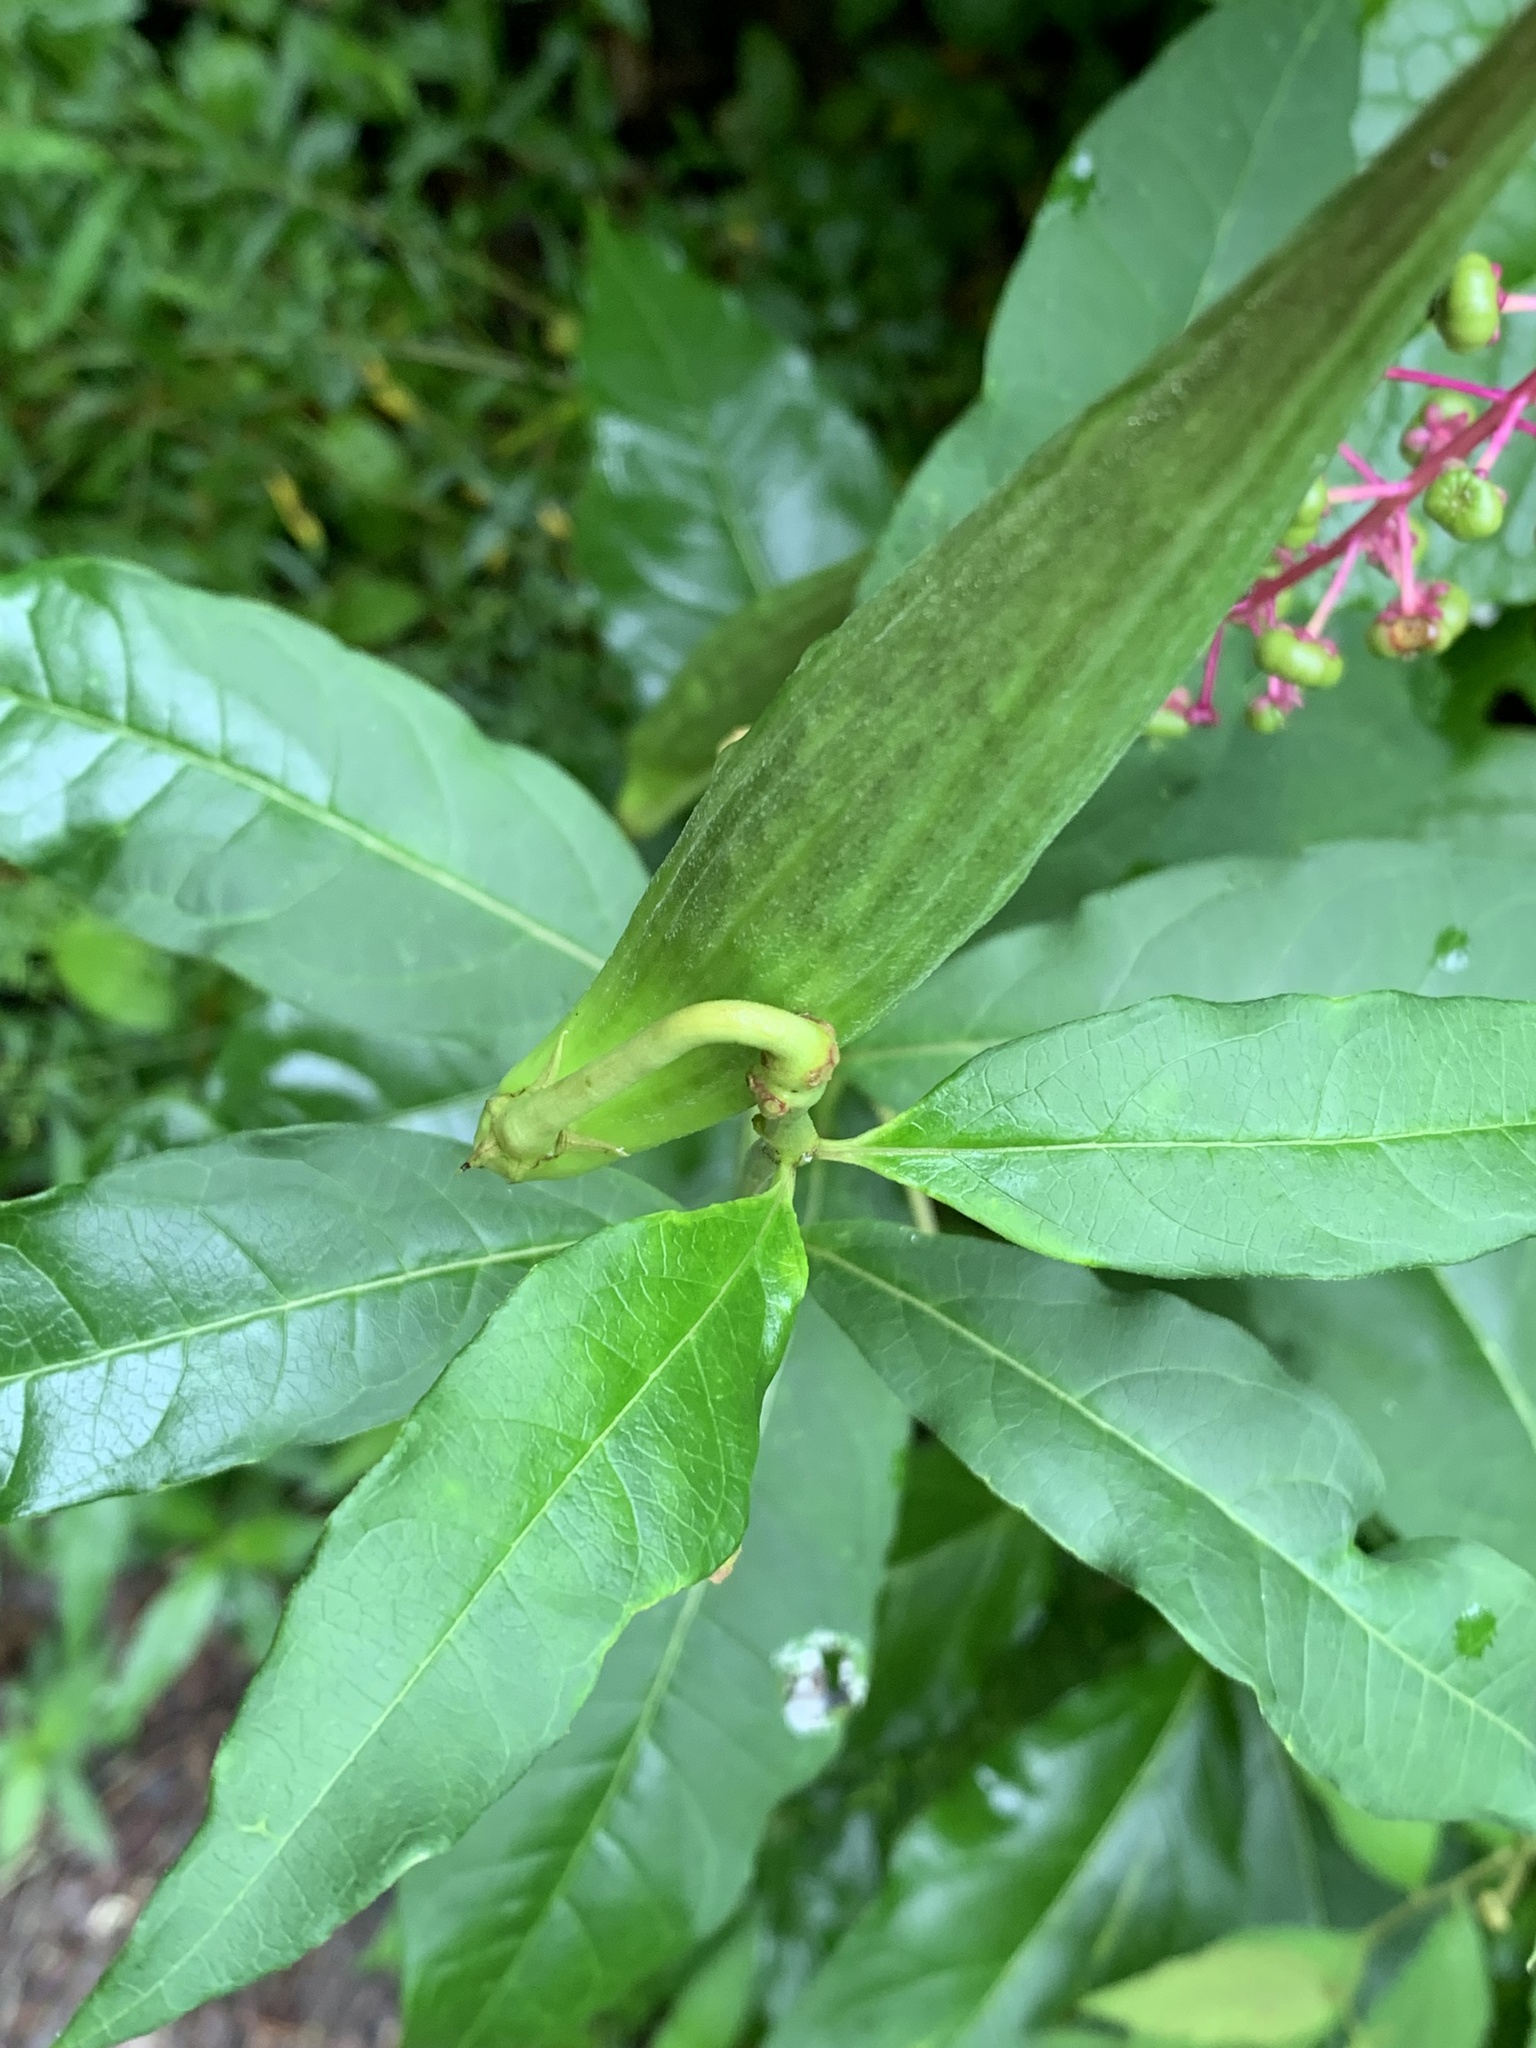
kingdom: Plantae
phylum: Tracheophyta
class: Magnoliopsida
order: Gentianales
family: Apocynaceae
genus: Asclepias
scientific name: Asclepias exaltata
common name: Poke milkweed
